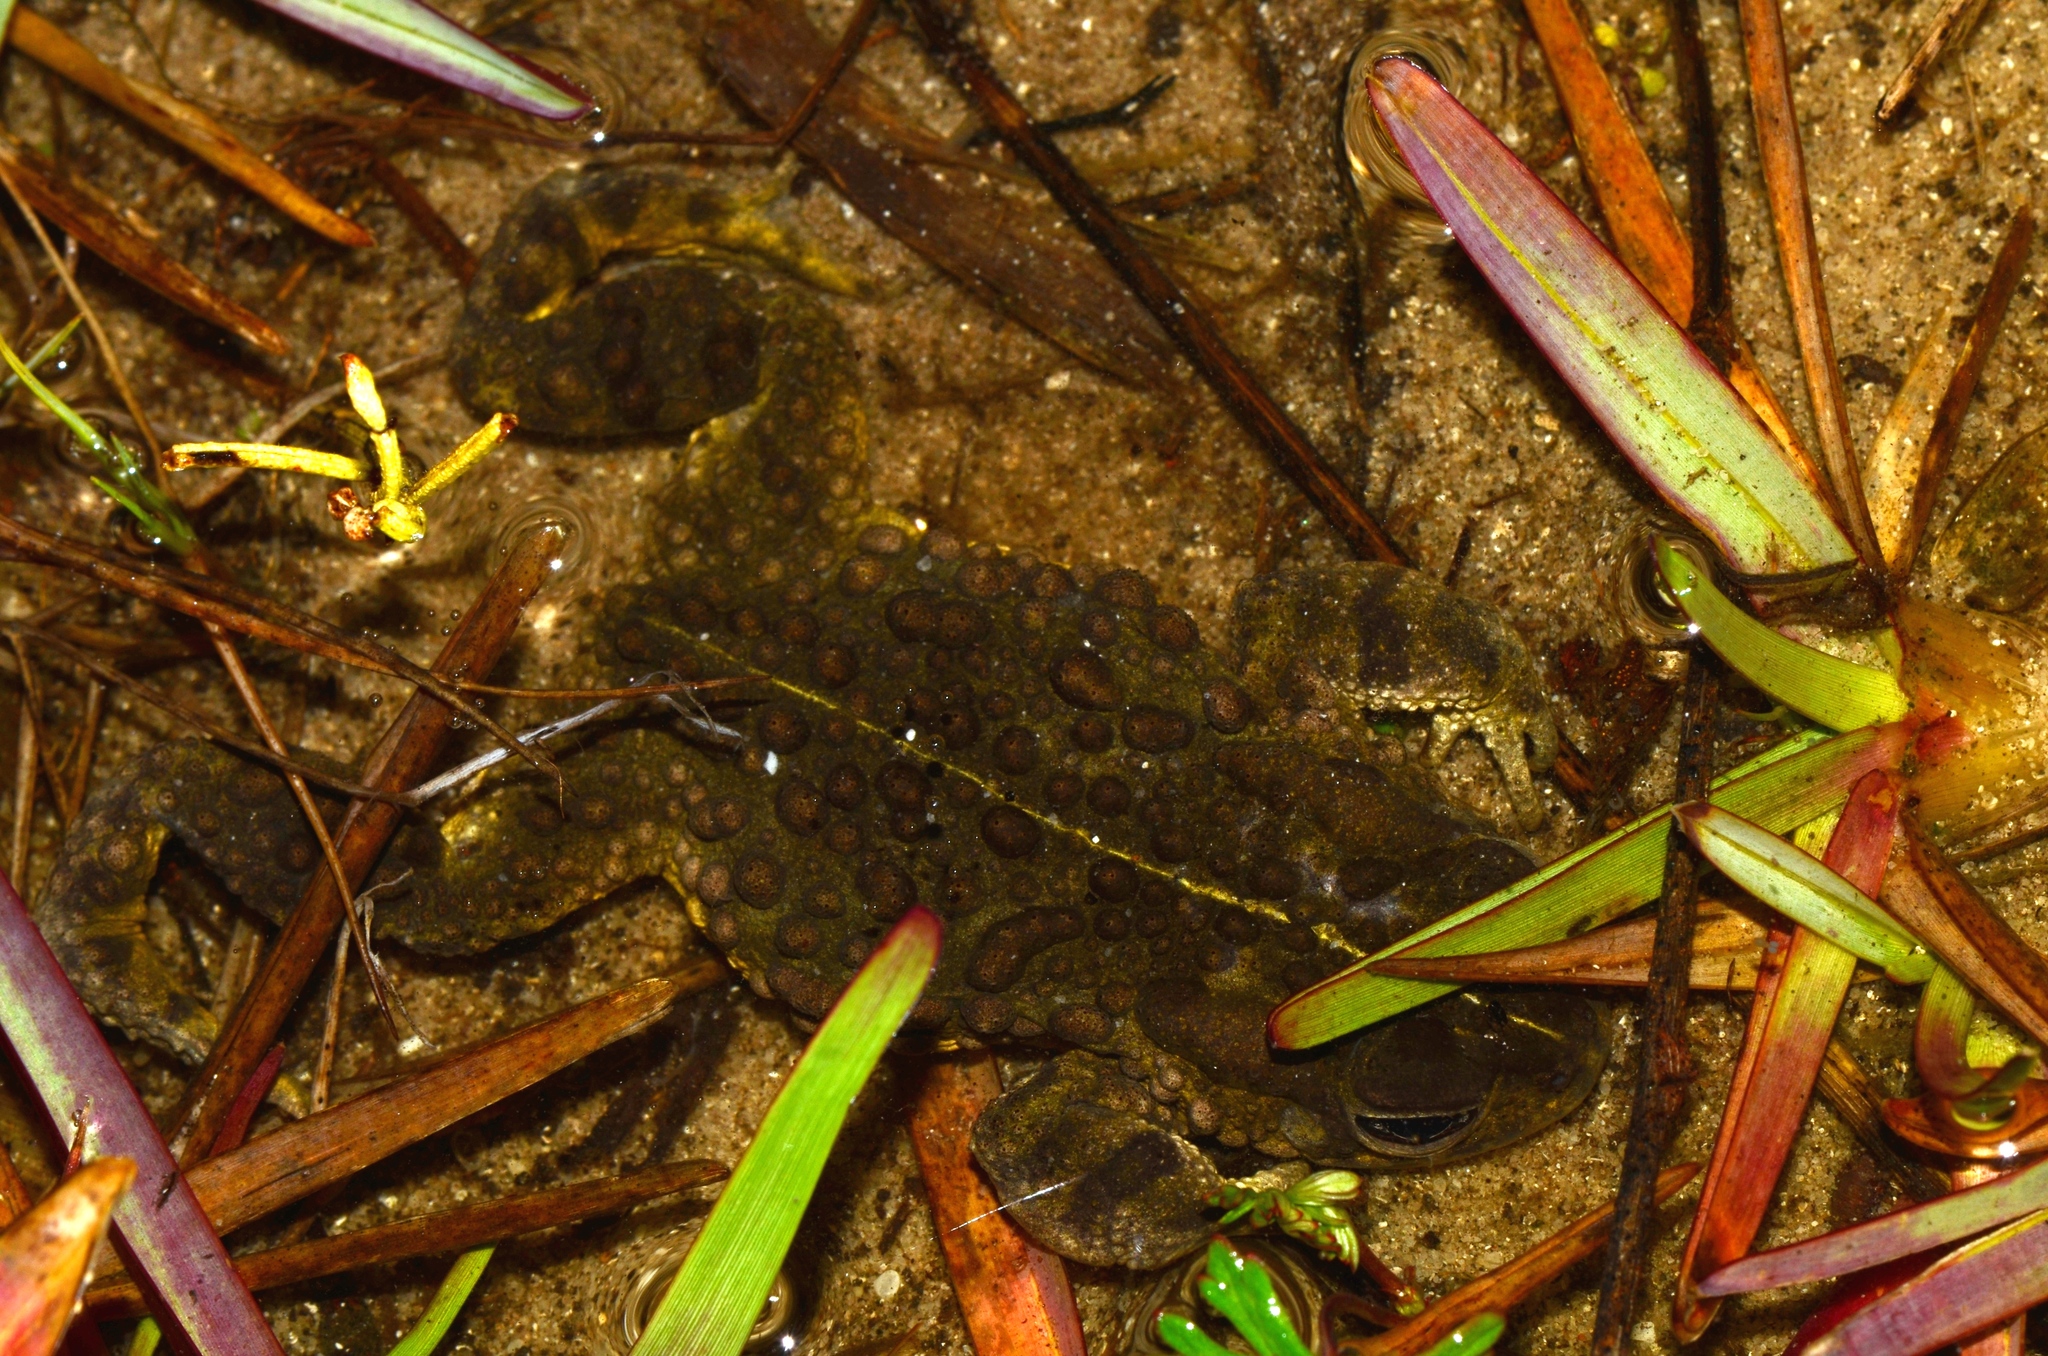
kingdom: Animalia
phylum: Chordata
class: Amphibia
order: Anura
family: Bufonidae
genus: Vandijkophrynus
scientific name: Vandijkophrynus angusticeps
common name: Sand toad
